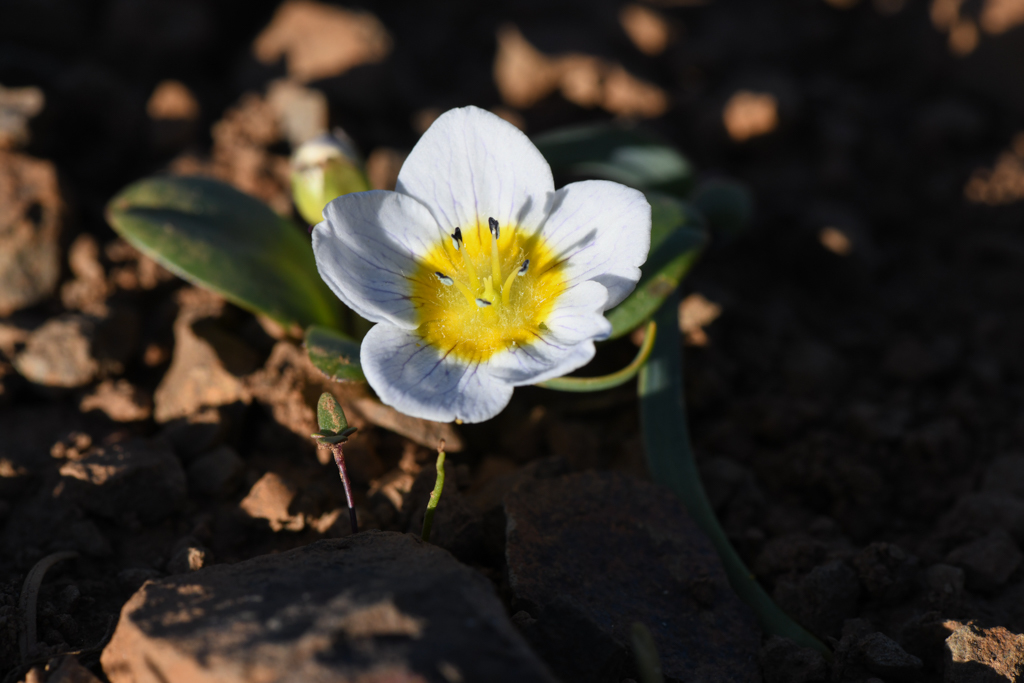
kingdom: Plantae
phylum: Tracheophyta
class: Magnoliopsida
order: Boraginales
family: Hydrophyllaceae
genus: Hesperochiron
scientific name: Hesperochiron pumilus
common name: Dwarf hesperochiron
